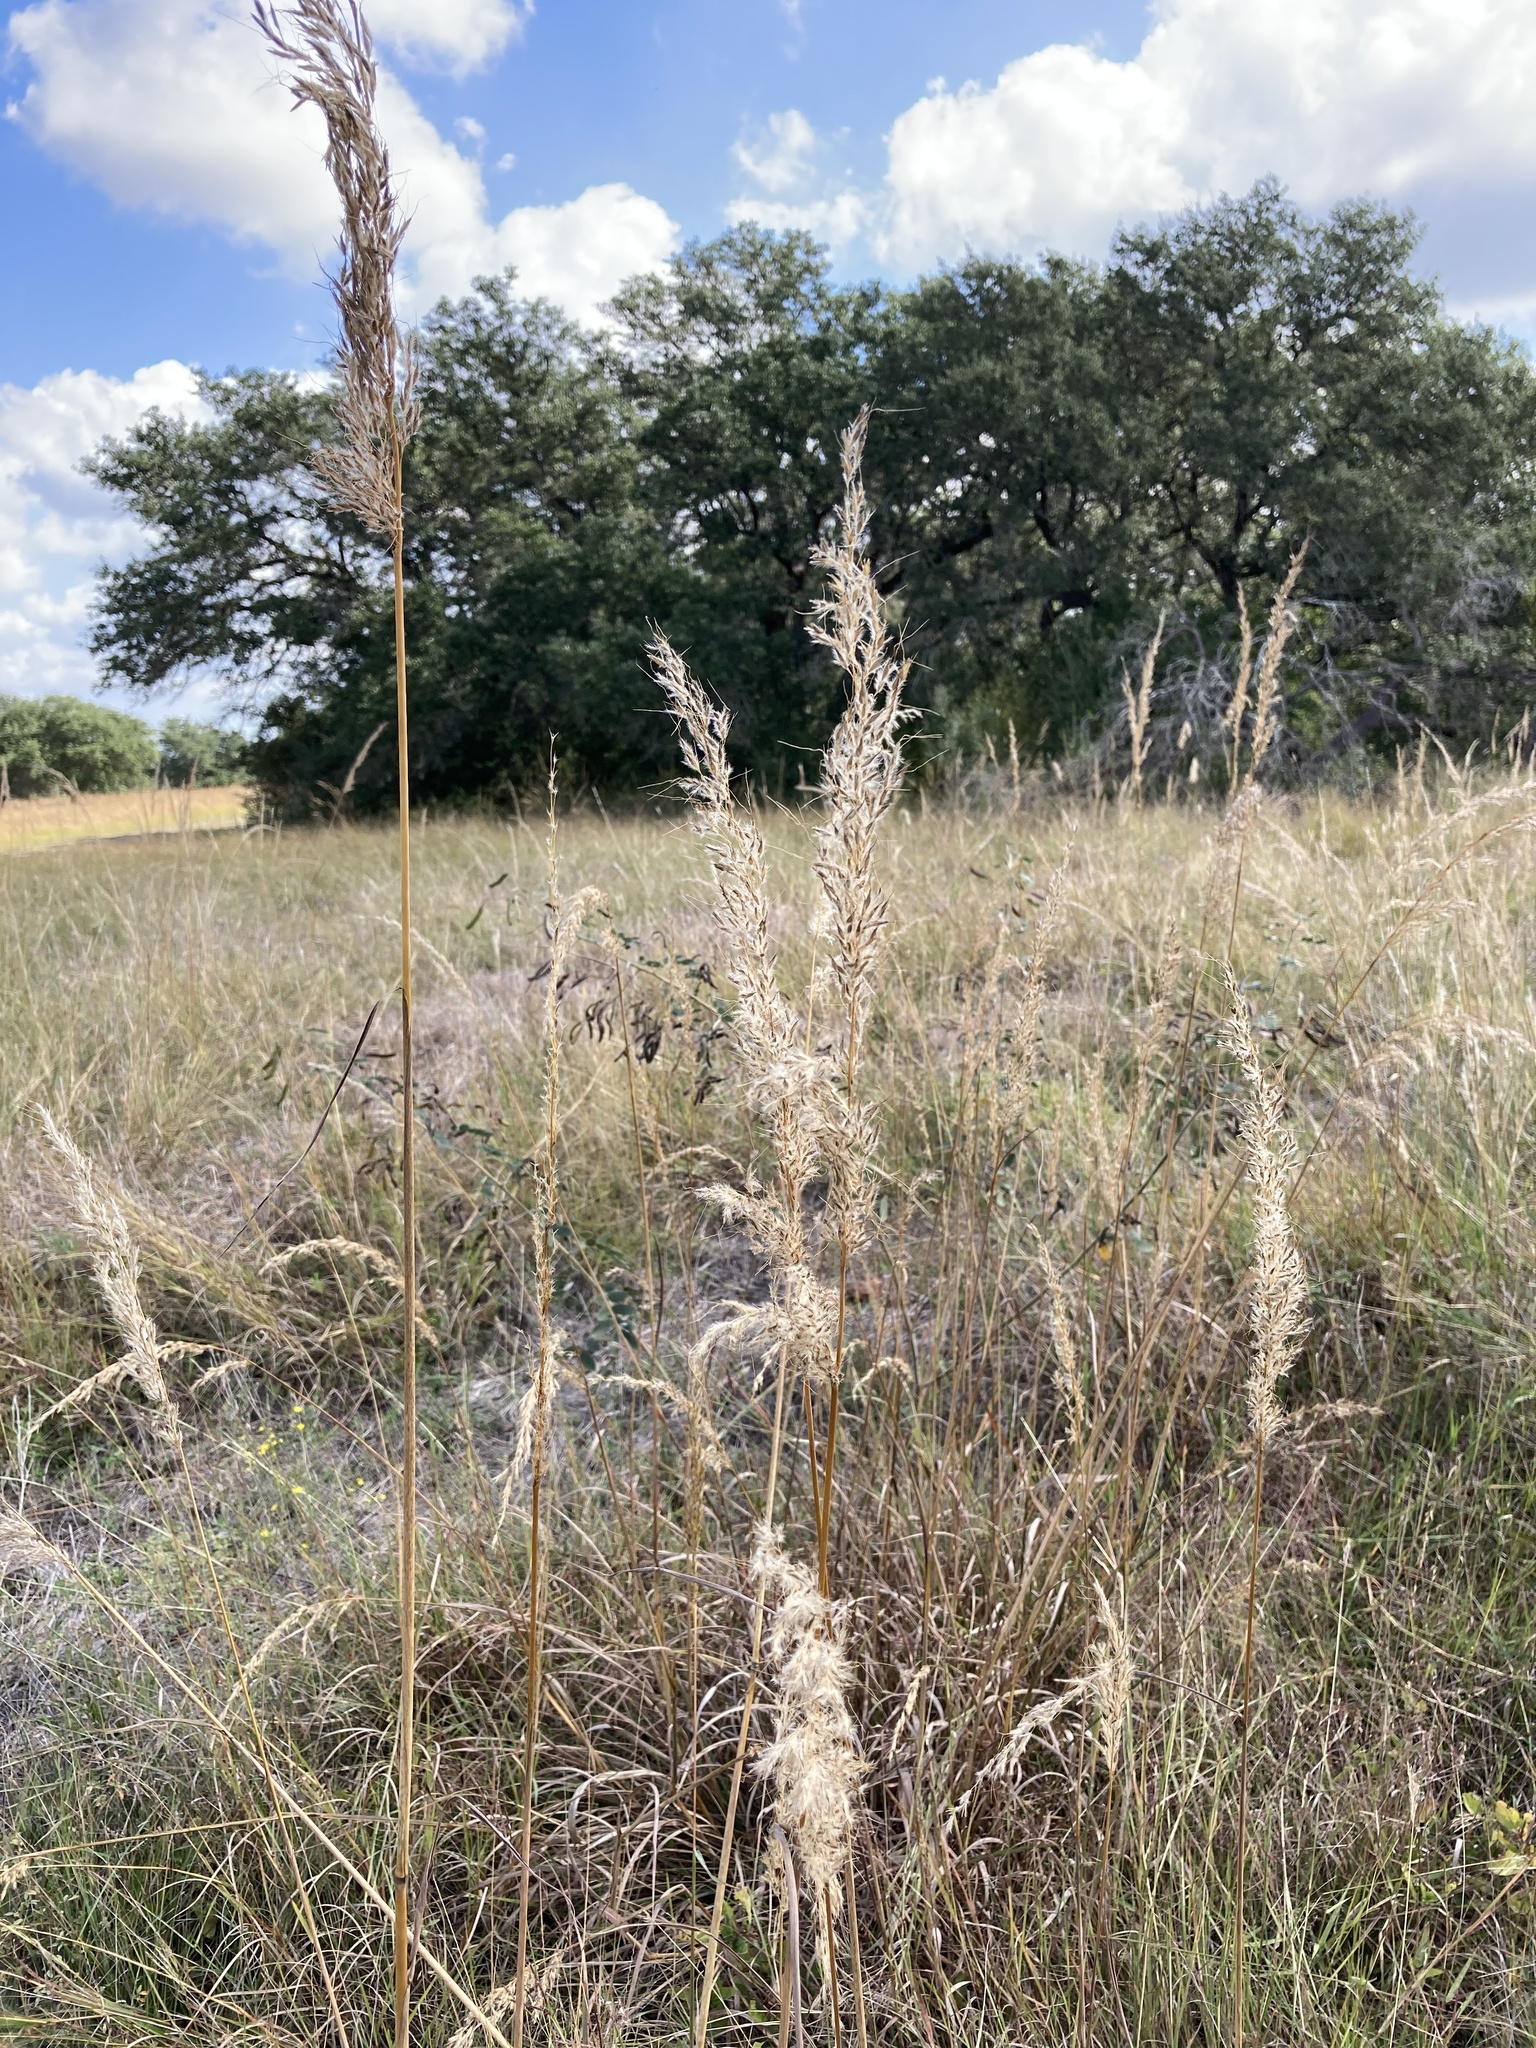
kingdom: Plantae
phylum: Tracheophyta
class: Liliopsida
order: Poales
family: Poaceae
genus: Sorghastrum
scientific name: Sorghastrum nutans
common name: Indian grass
